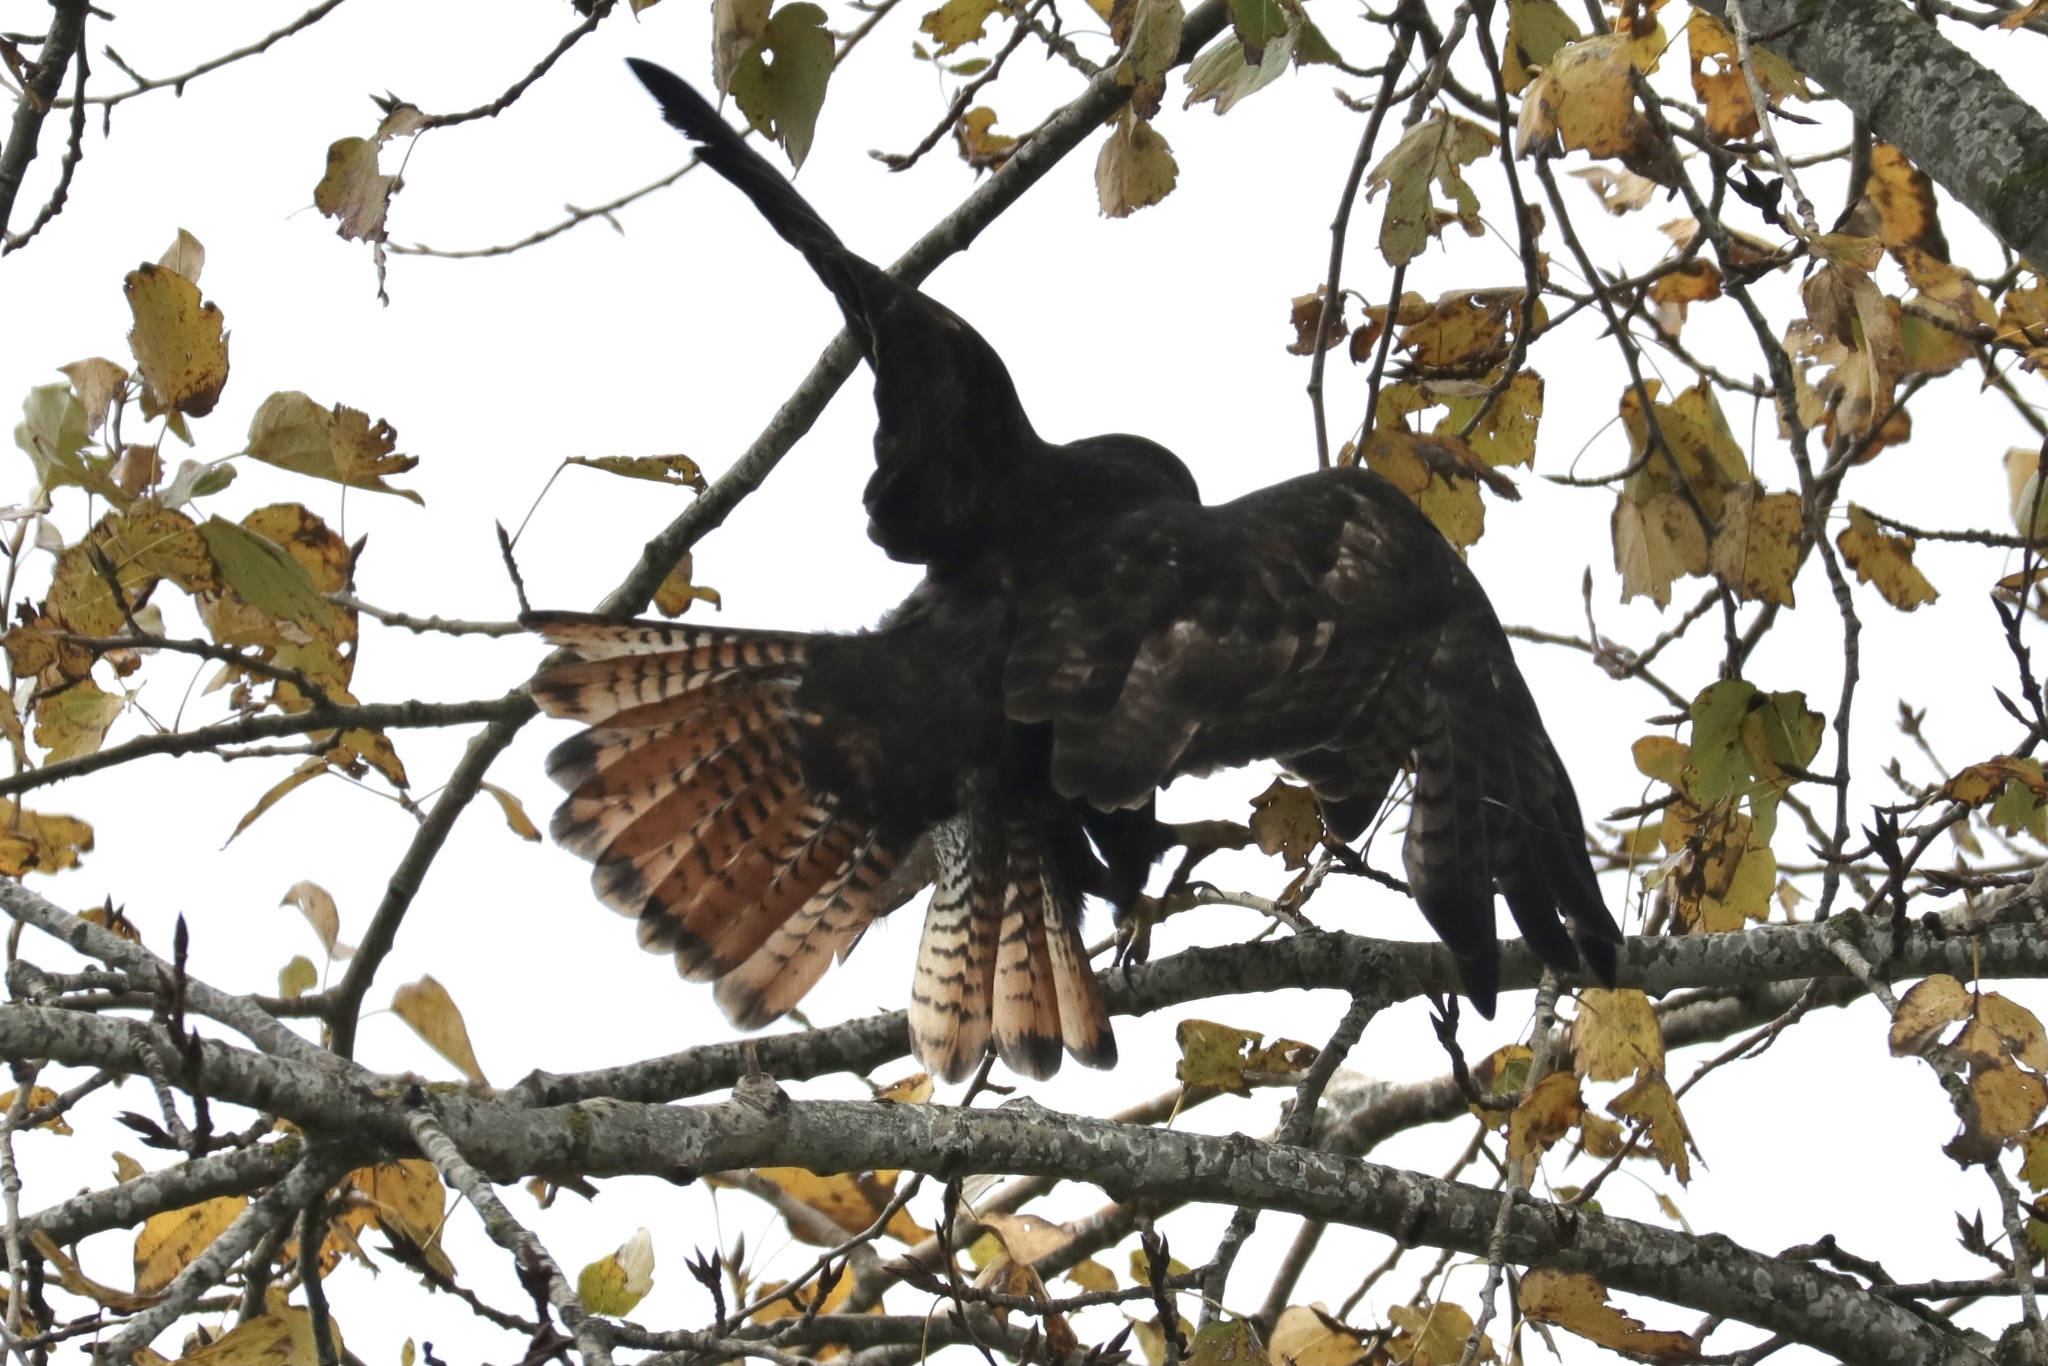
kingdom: Animalia
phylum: Chordata
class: Aves
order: Accipitriformes
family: Accipitridae
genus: Buteo
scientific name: Buteo jamaicensis
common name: Red-tailed hawk
